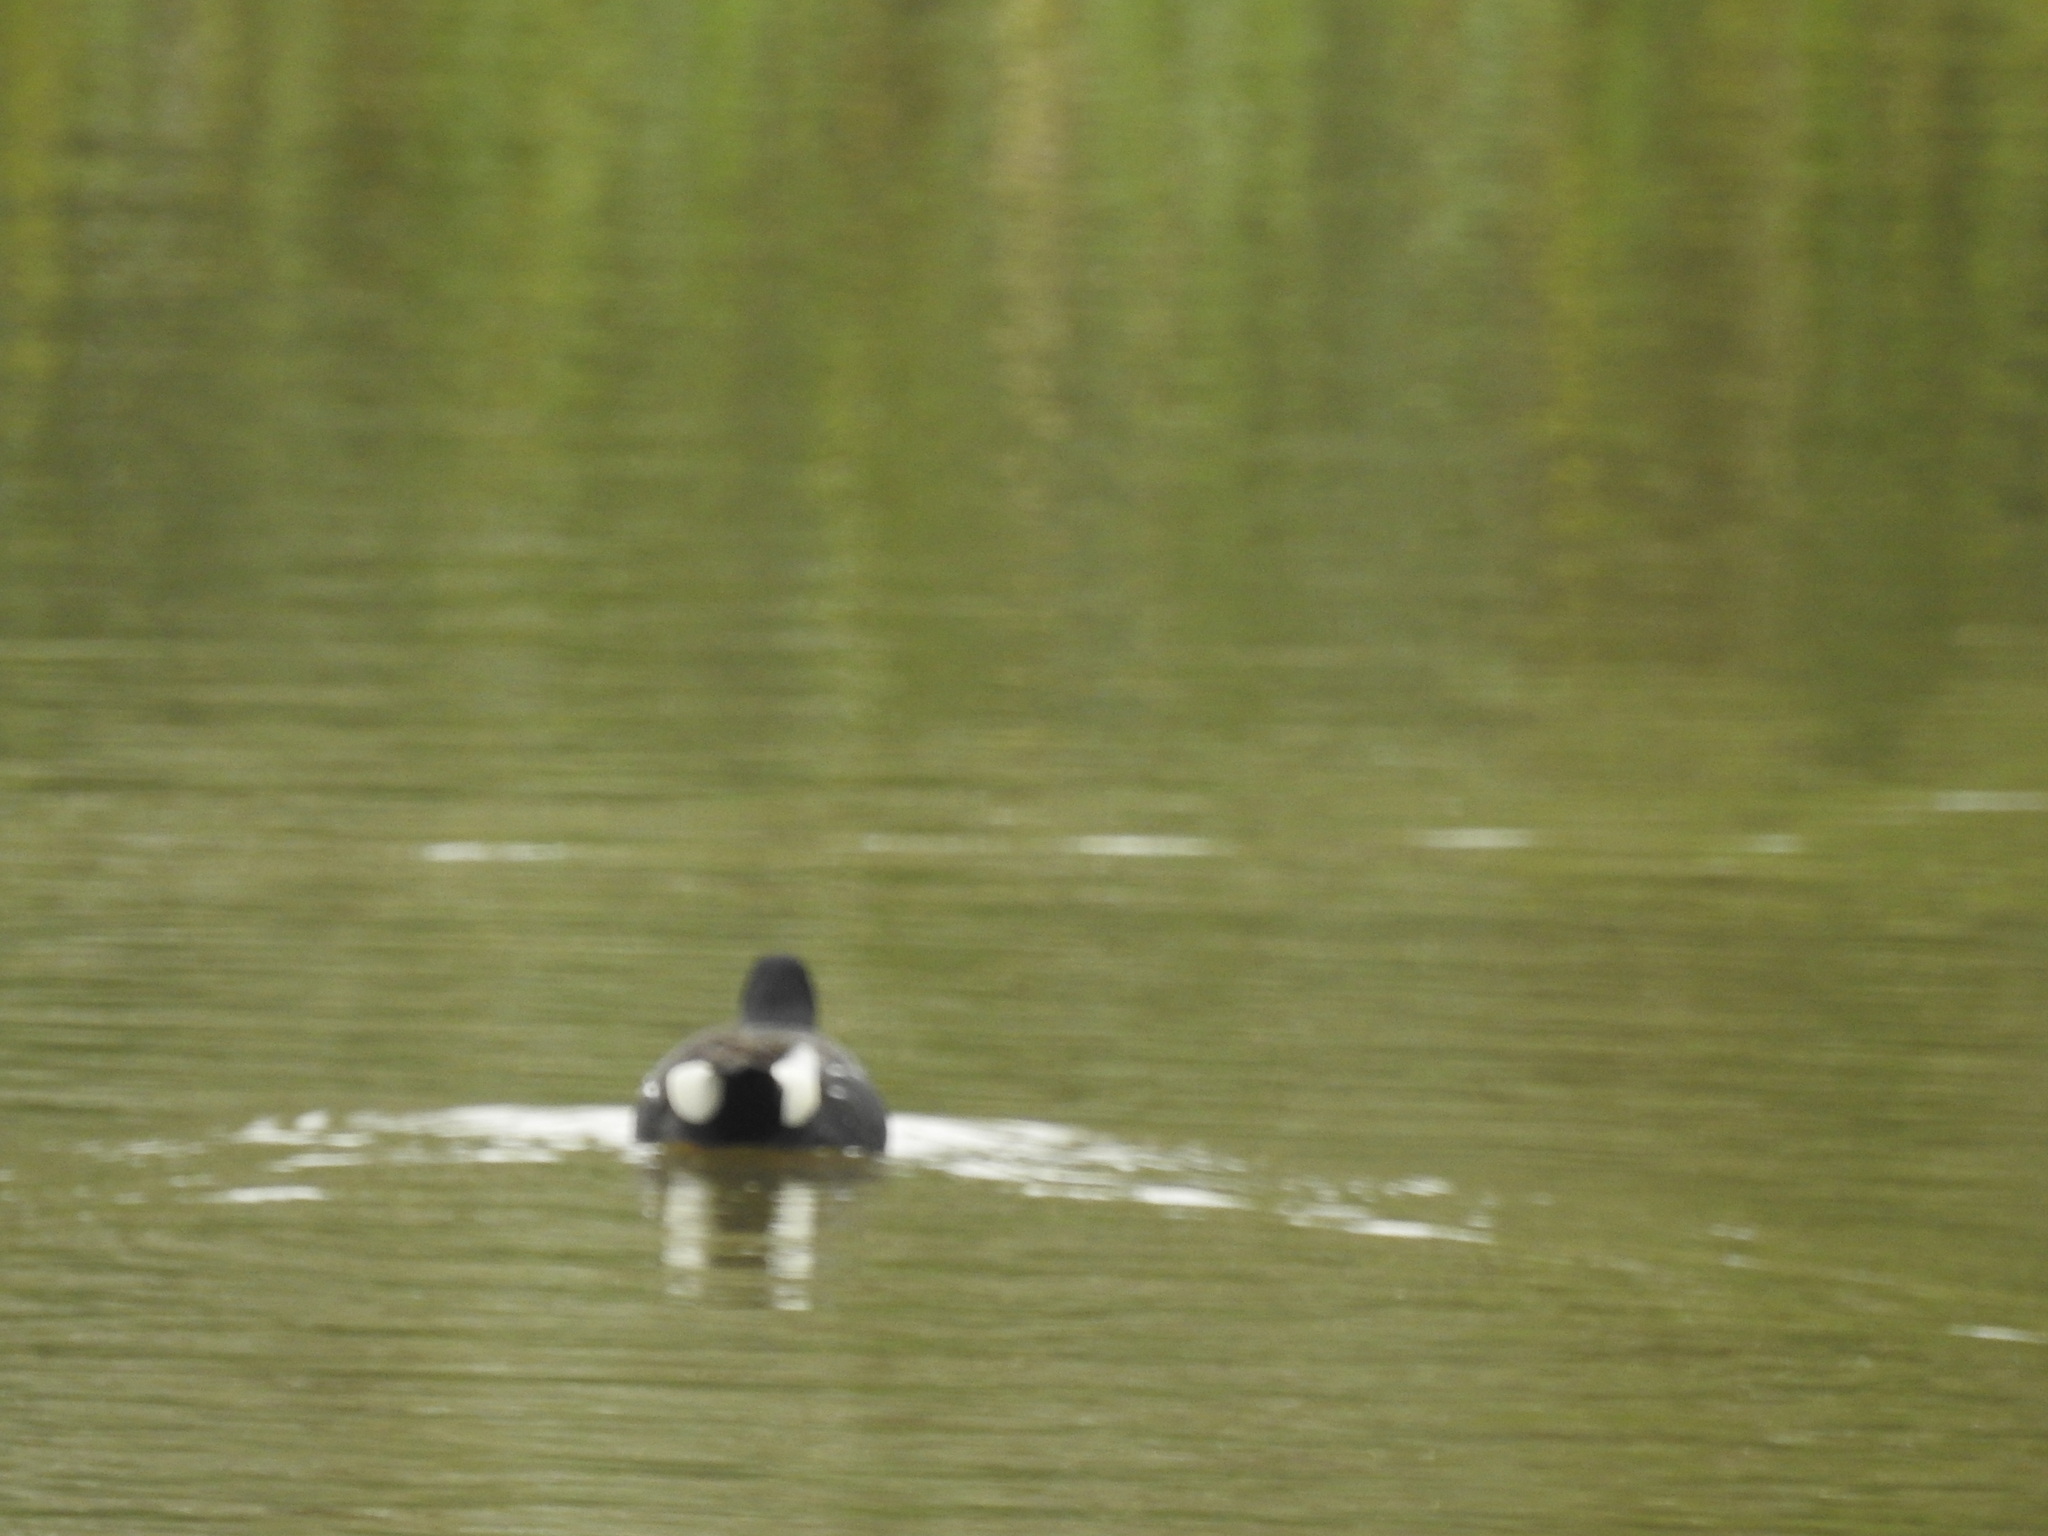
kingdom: Animalia
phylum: Chordata
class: Aves
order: Gruiformes
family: Rallidae
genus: Gallinula
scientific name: Gallinula chloropus
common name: Common moorhen
